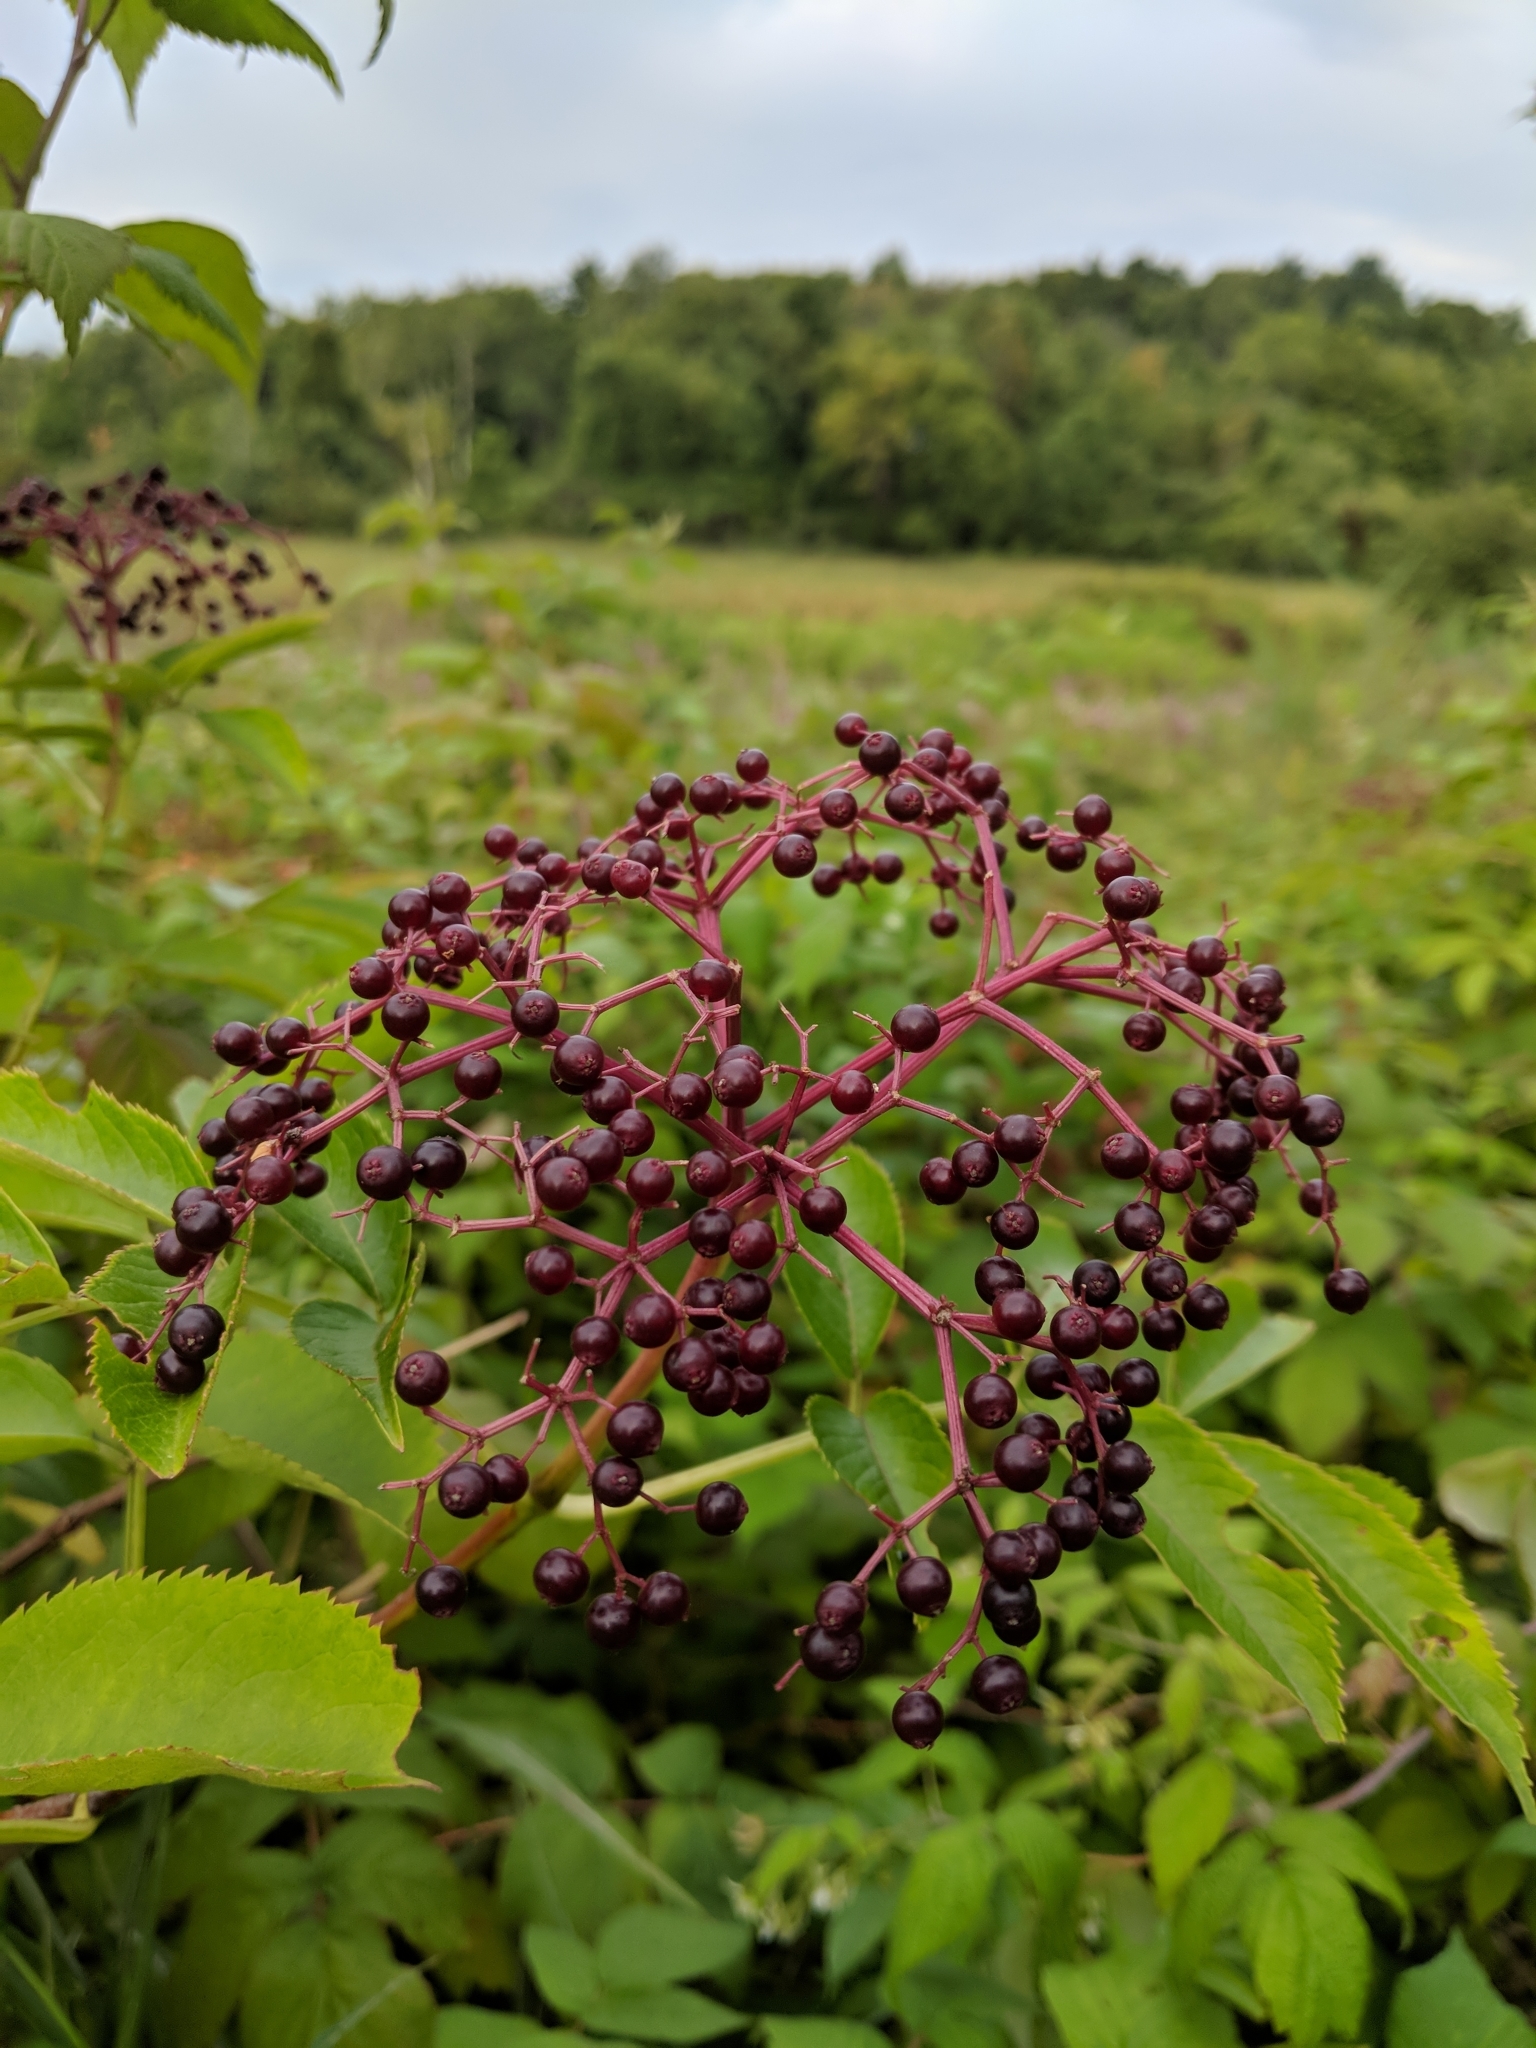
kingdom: Plantae
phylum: Tracheophyta
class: Magnoliopsida
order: Dipsacales
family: Viburnaceae
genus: Sambucus
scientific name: Sambucus canadensis
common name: American elder
